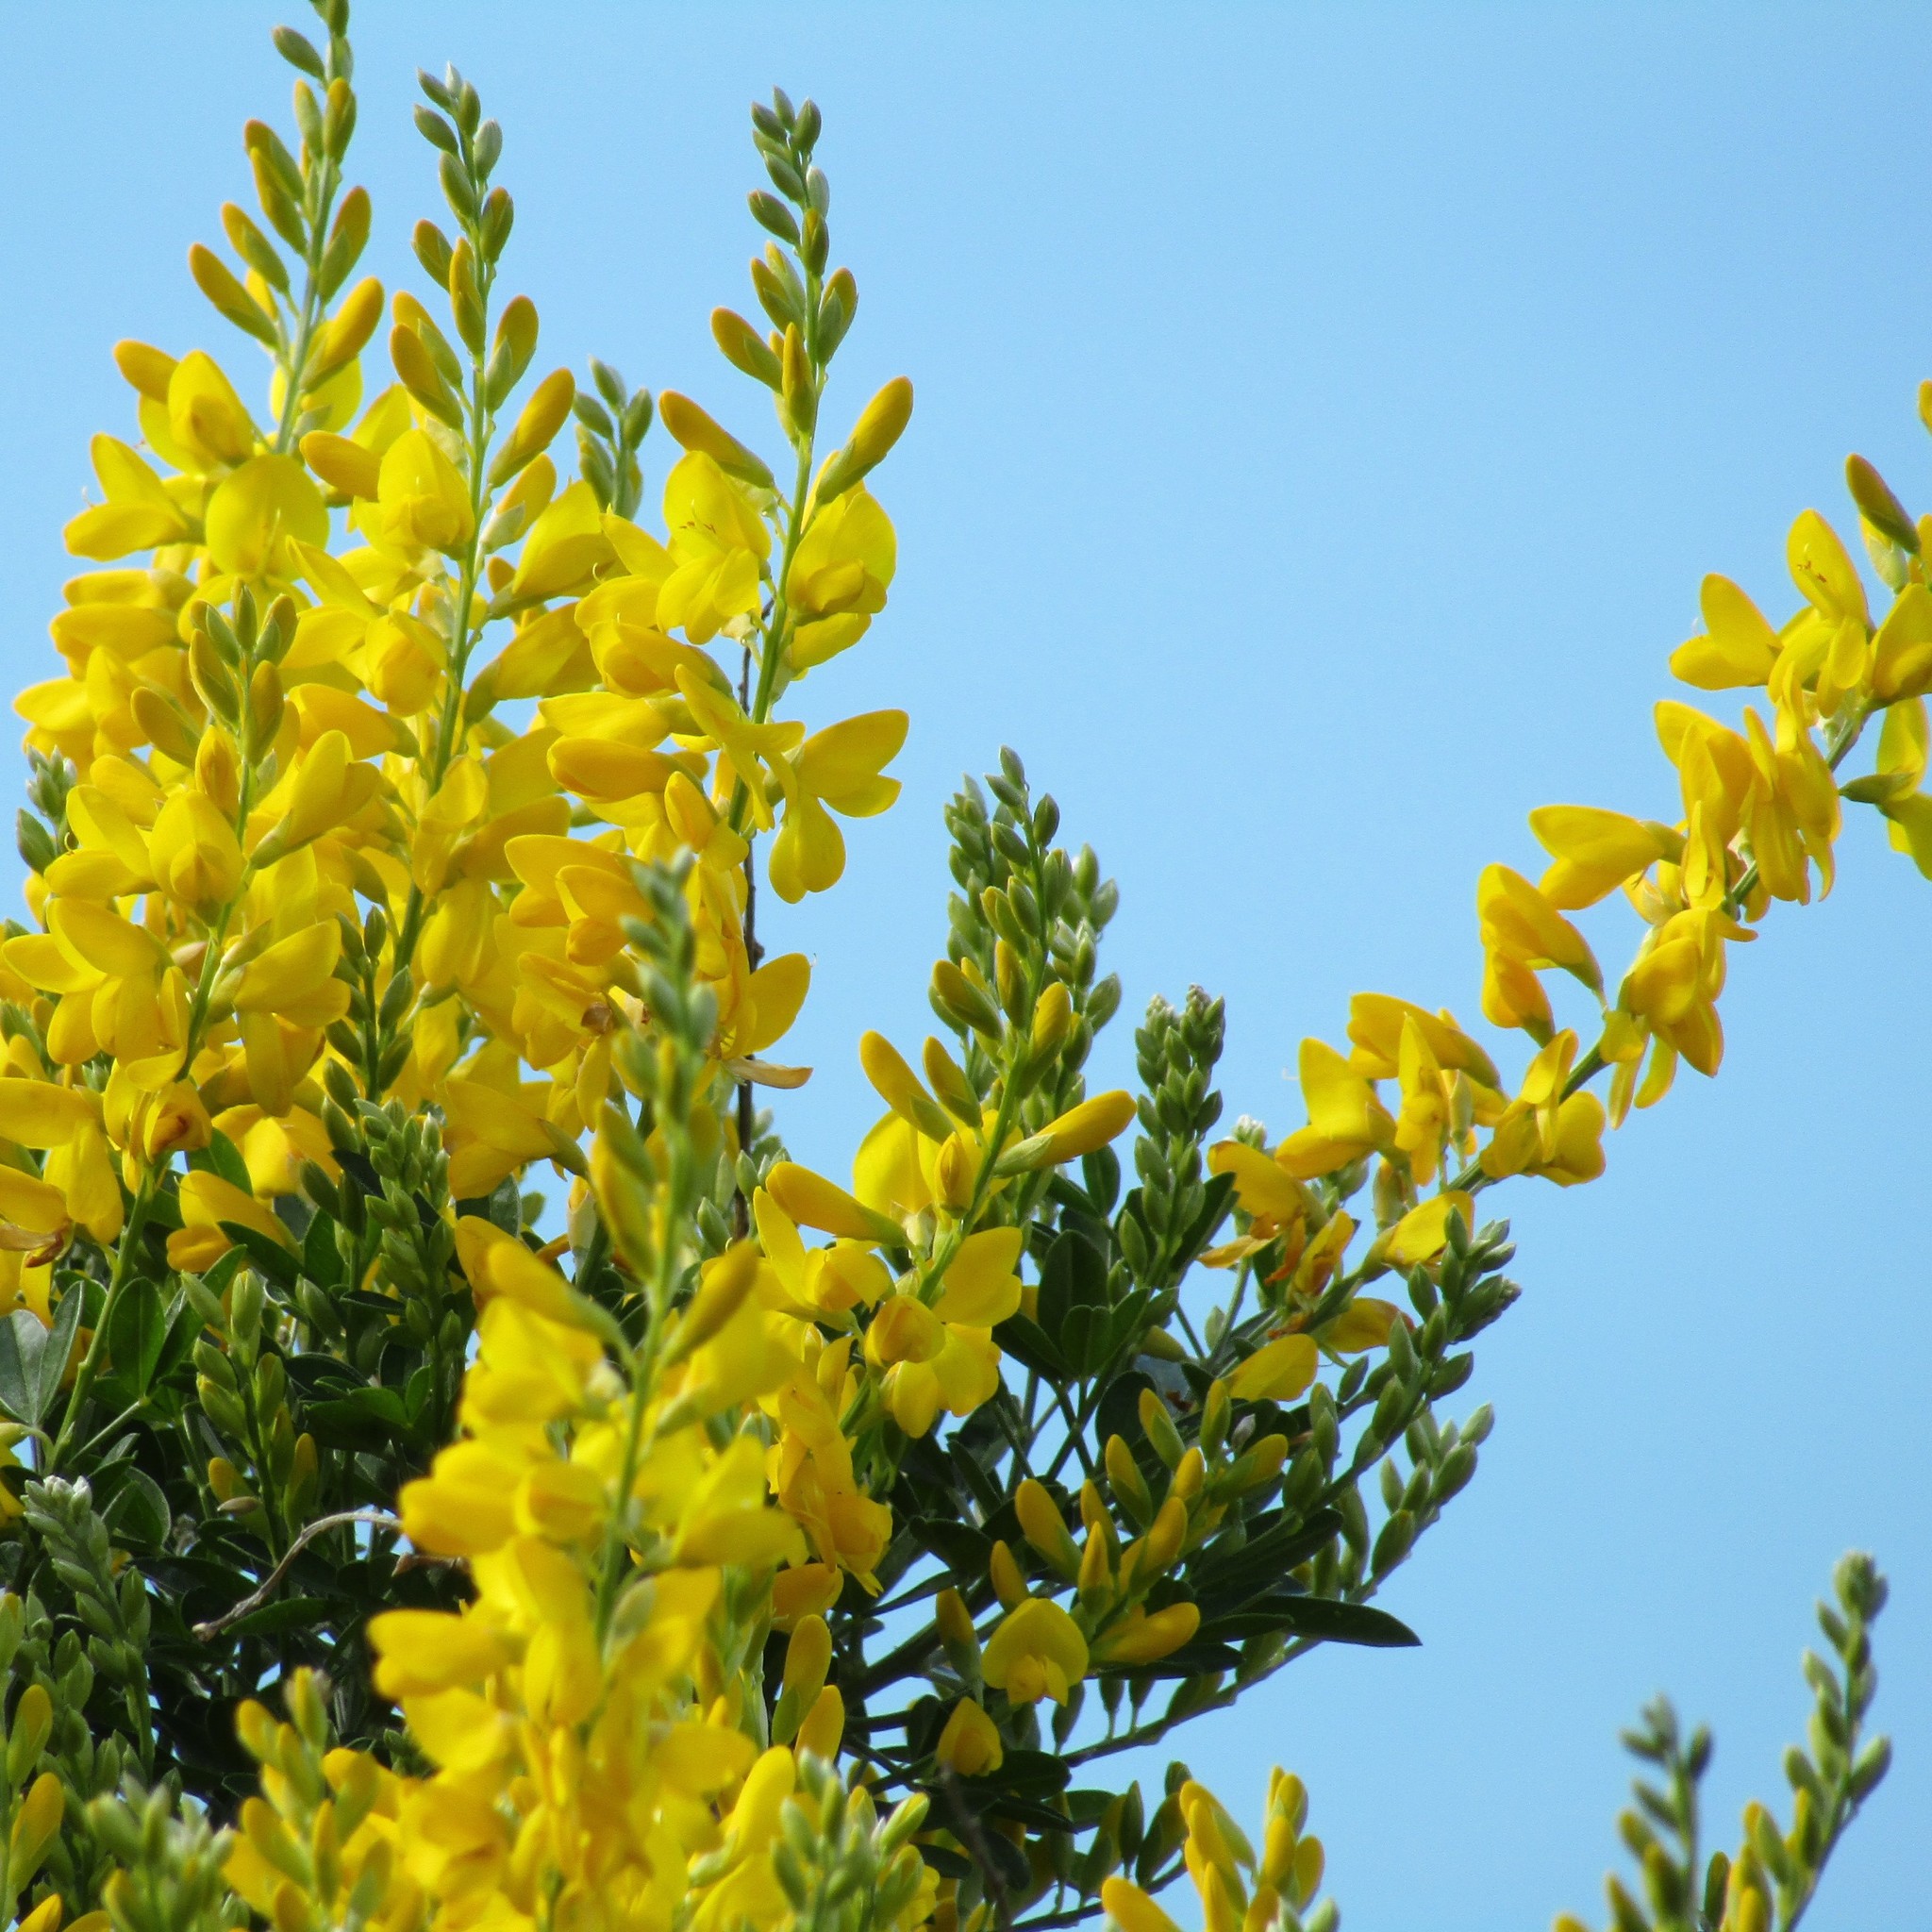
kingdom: Plantae
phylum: Tracheophyta
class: Magnoliopsida
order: Fabales
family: Fabaceae
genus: Genista
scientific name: Genista stenopetala
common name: Leafy broom
